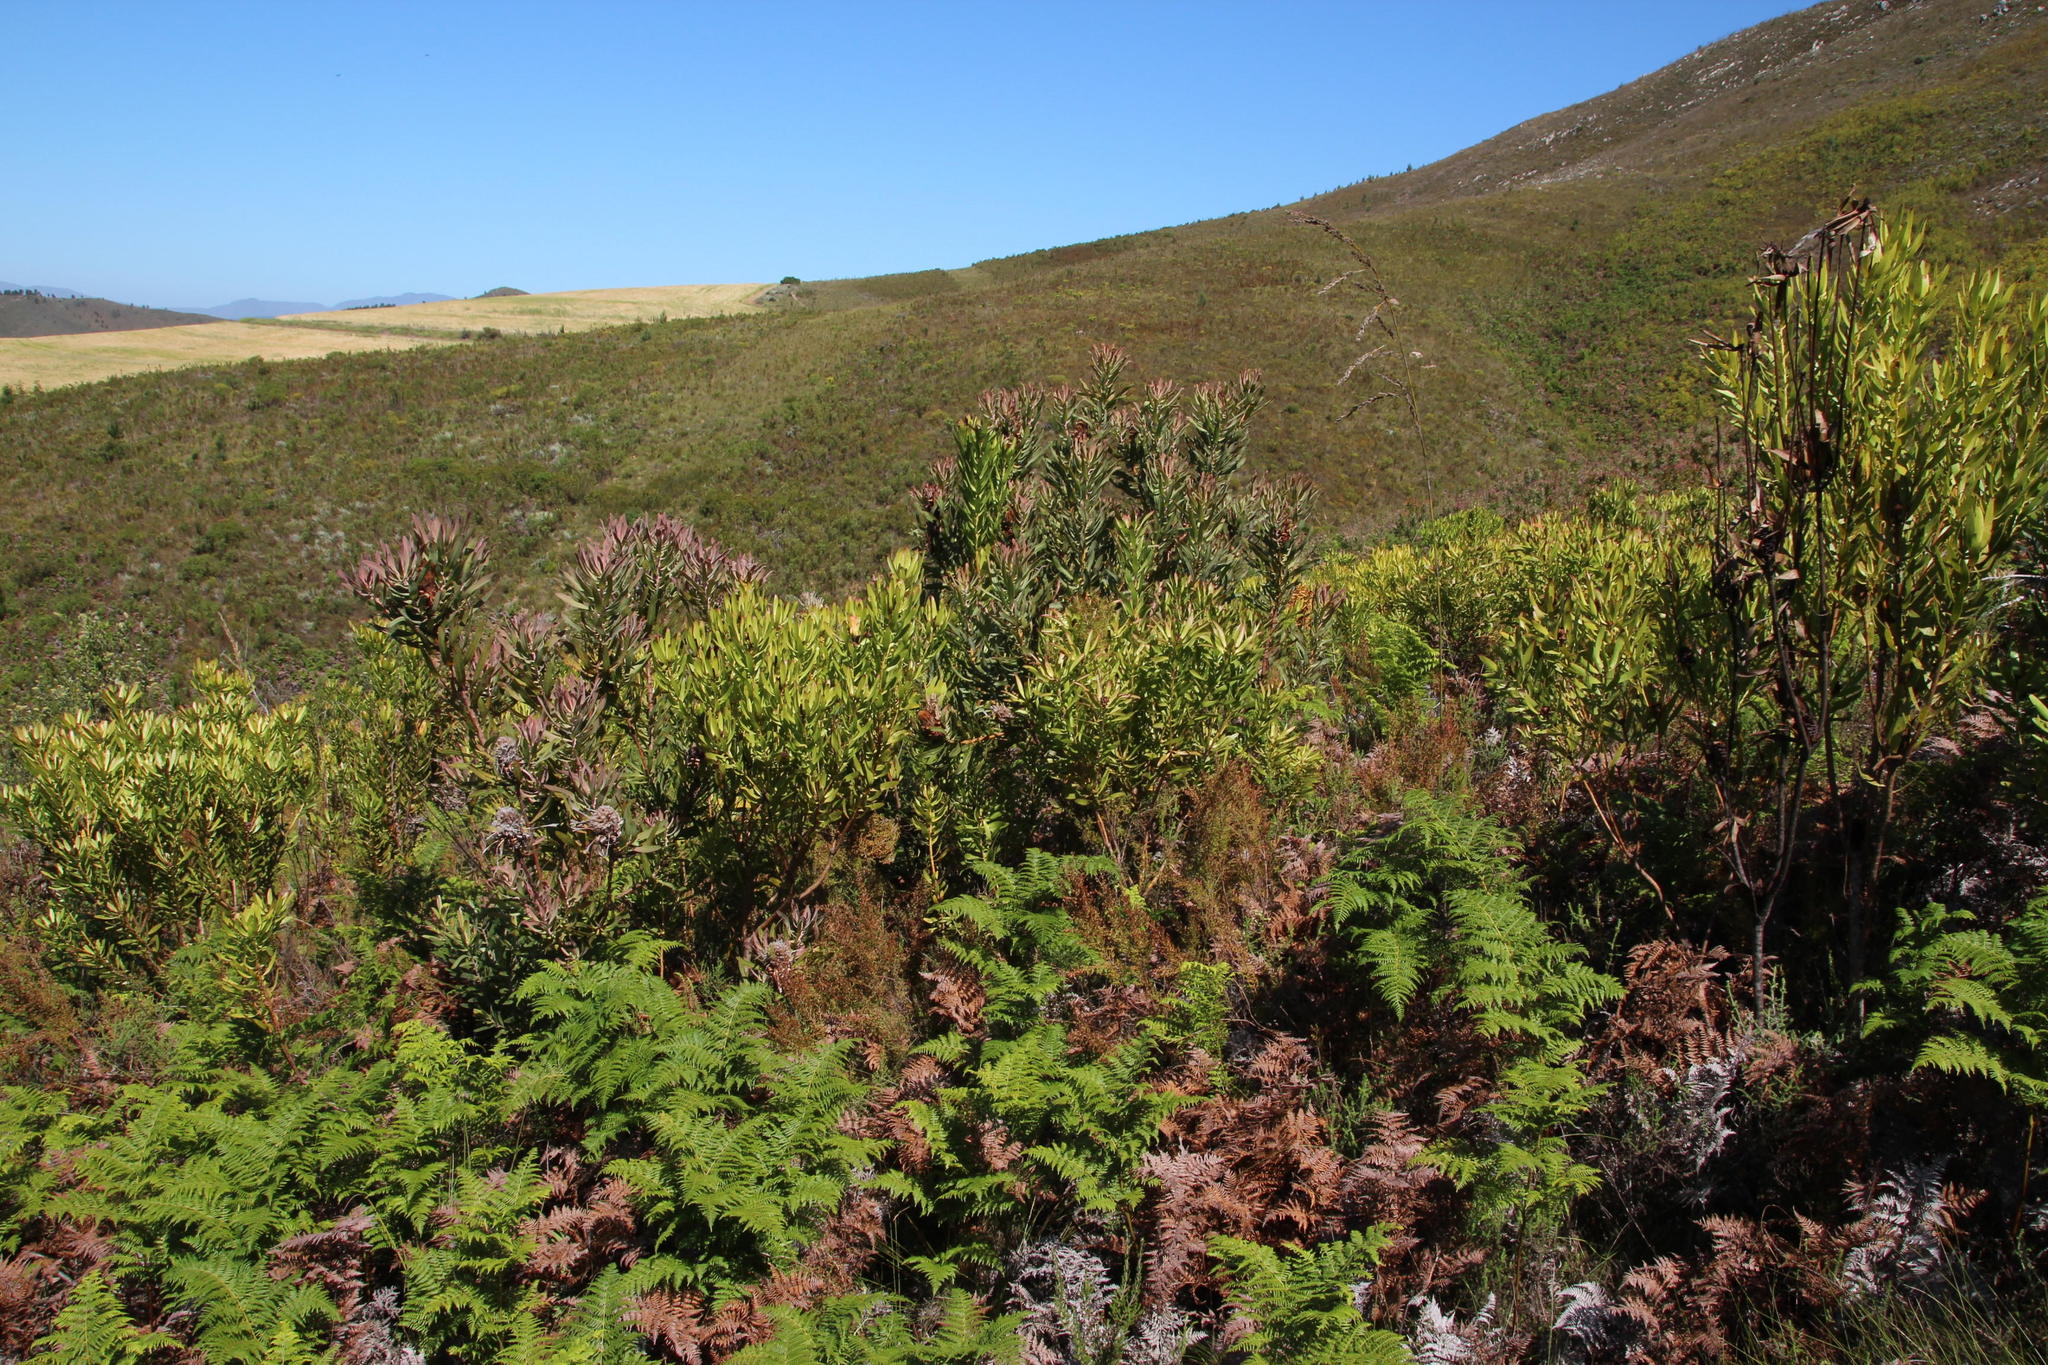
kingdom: Plantae
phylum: Tracheophyta
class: Magnoliopsida
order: Proteales
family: Proteaceae
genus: Leucadendron
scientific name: Leucadendron microcephalum
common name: Oilbract conebush
